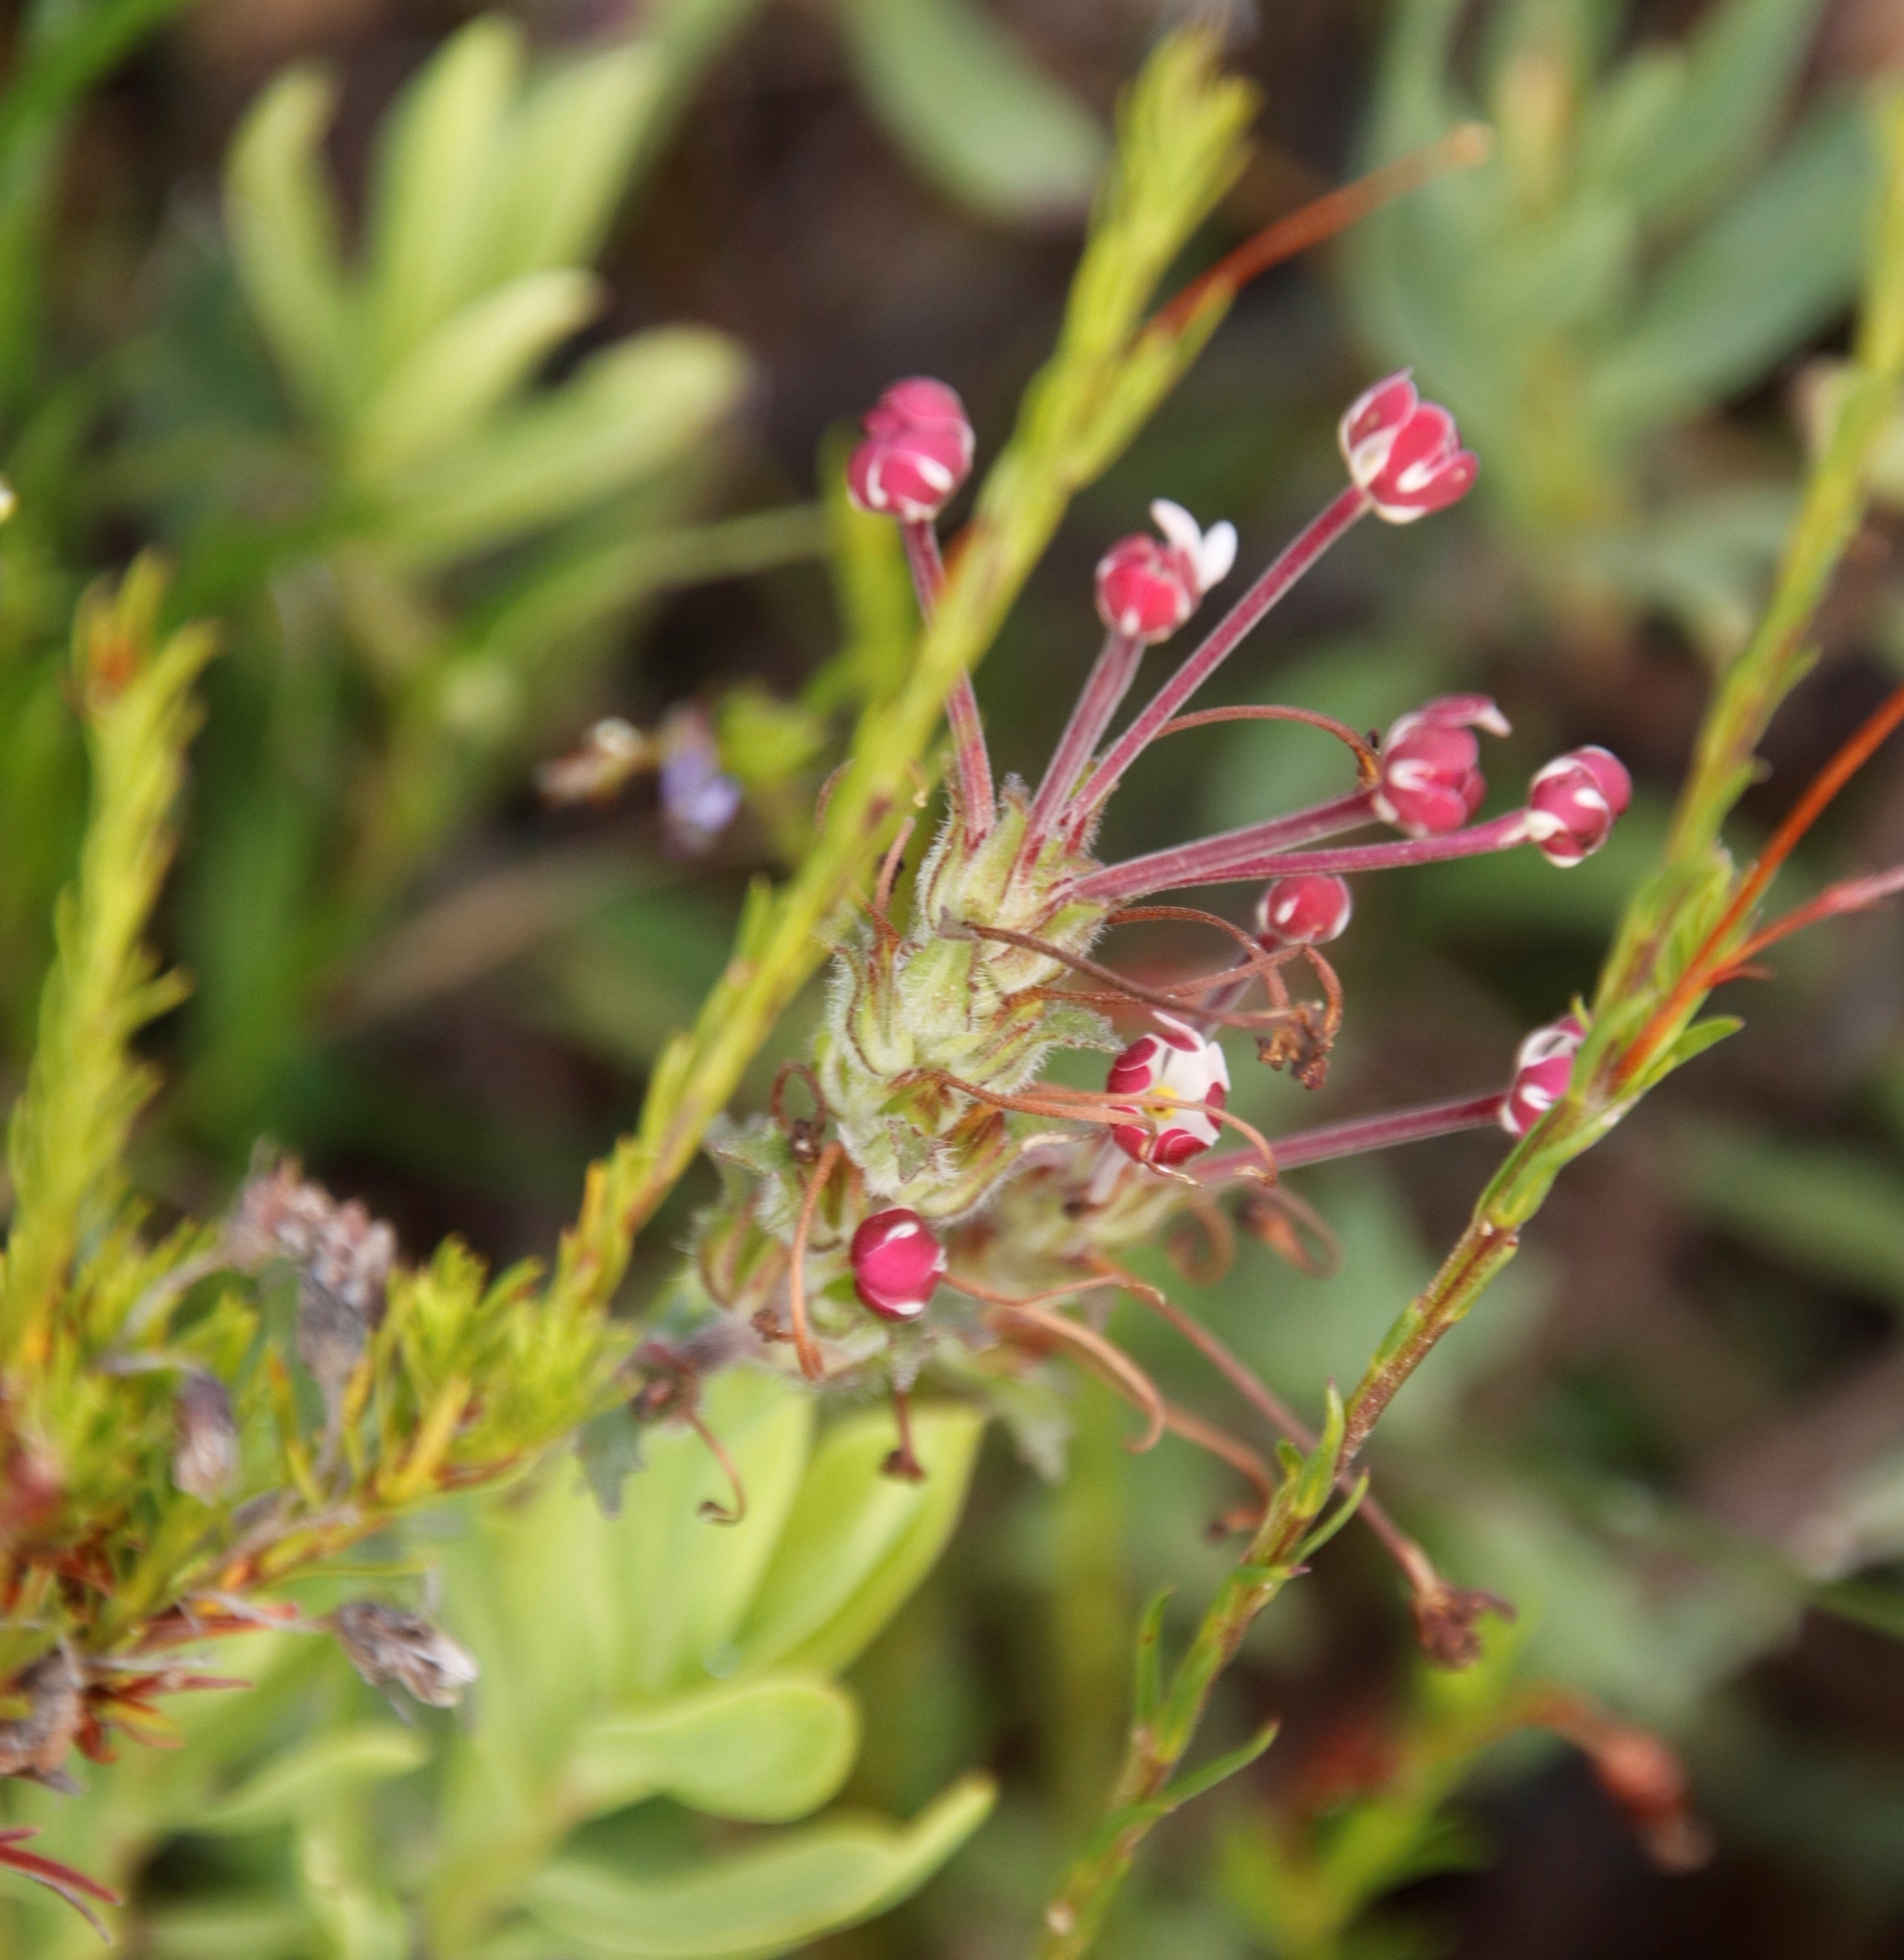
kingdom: Plantae
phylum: Tracheophyta
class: Magnoliopsida
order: Lamiales
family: Scrophulariaceae
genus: Zaluzianskya
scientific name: Zaluzianskya capensis
